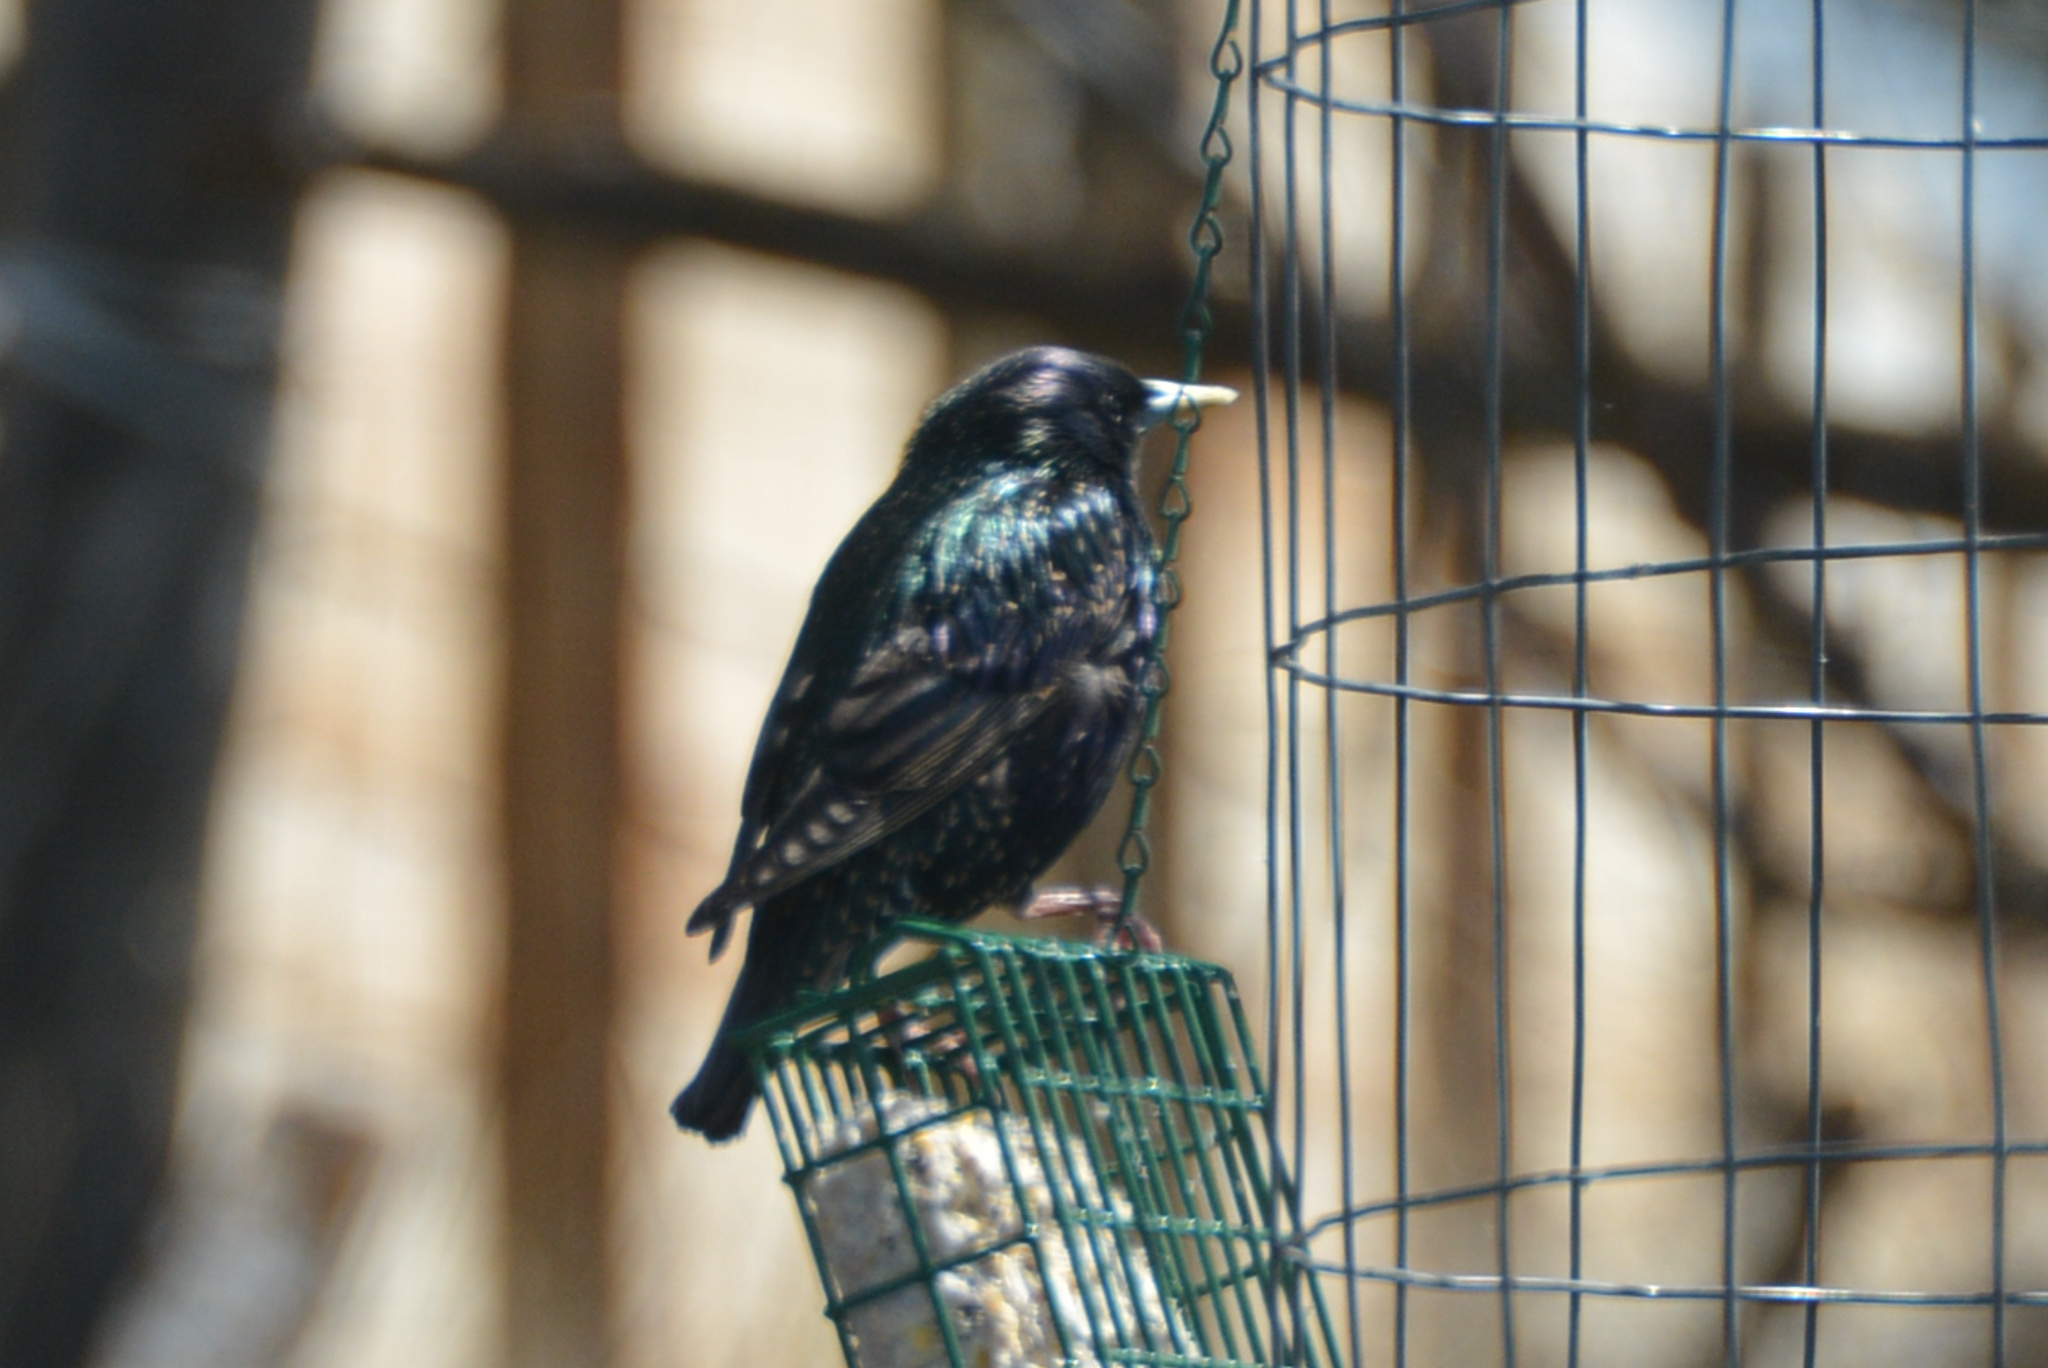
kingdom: Animalia
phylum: Chordata
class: Aves
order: Passeriformes
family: Sturnidae
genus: Sturnus
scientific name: Sturnus vulgaris
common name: Common starling
